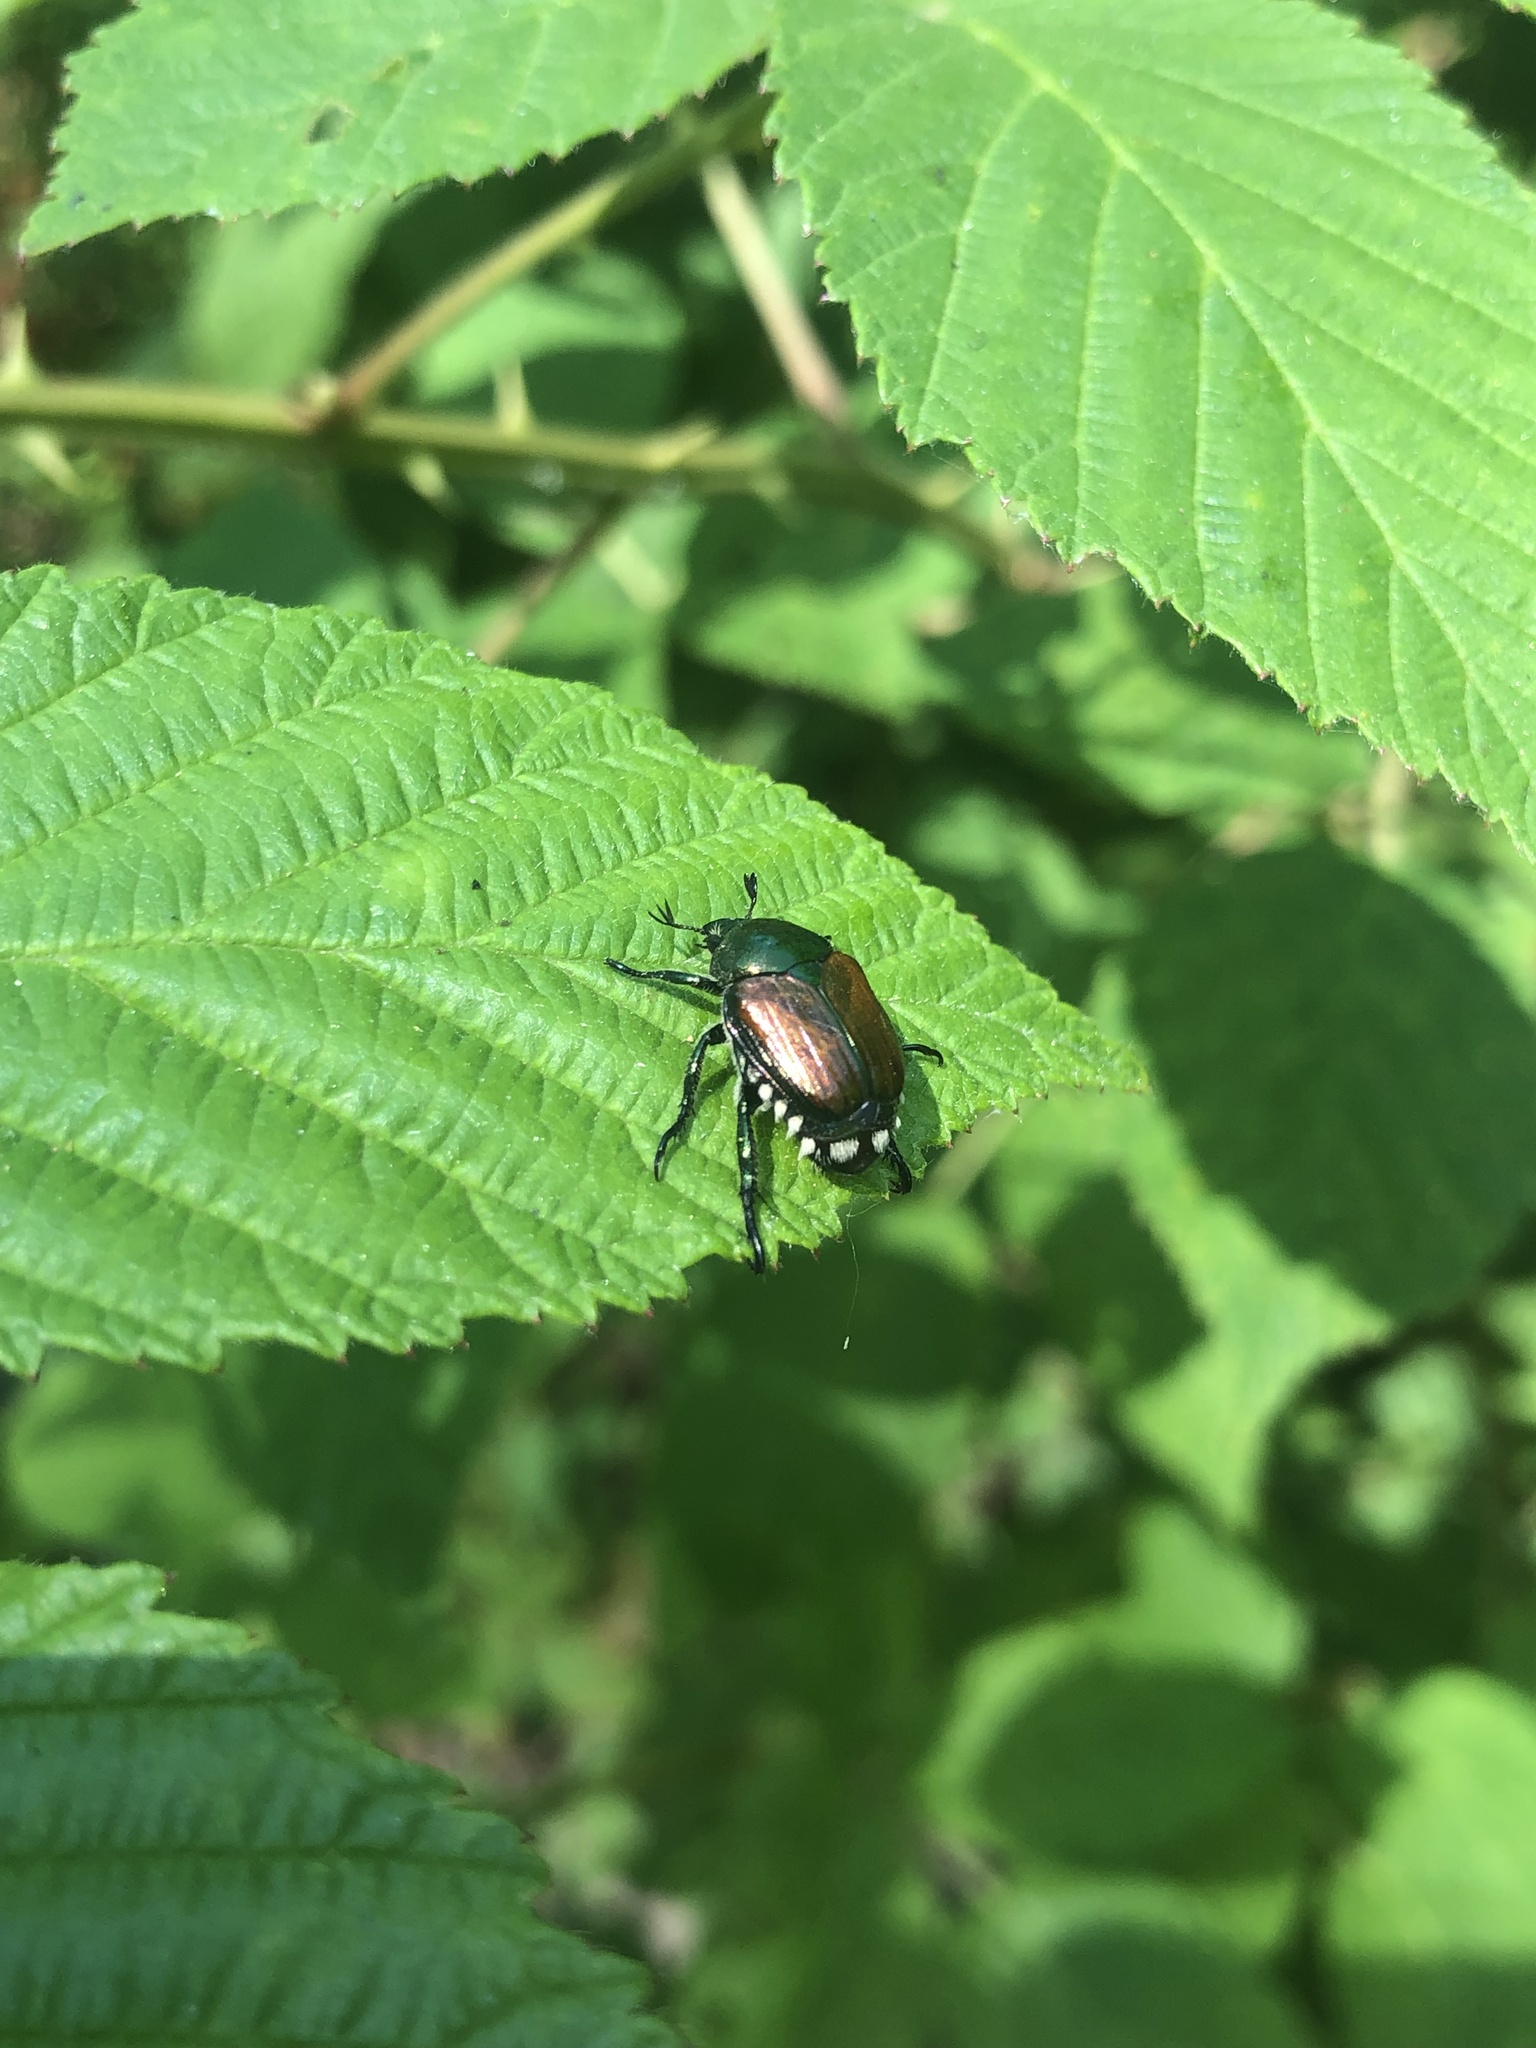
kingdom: Animalia
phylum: Arthropoda
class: Insecta
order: Coleoptera
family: Scarabaeidae
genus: Popillia
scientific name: Popillia japonica
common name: Japanese beetle
